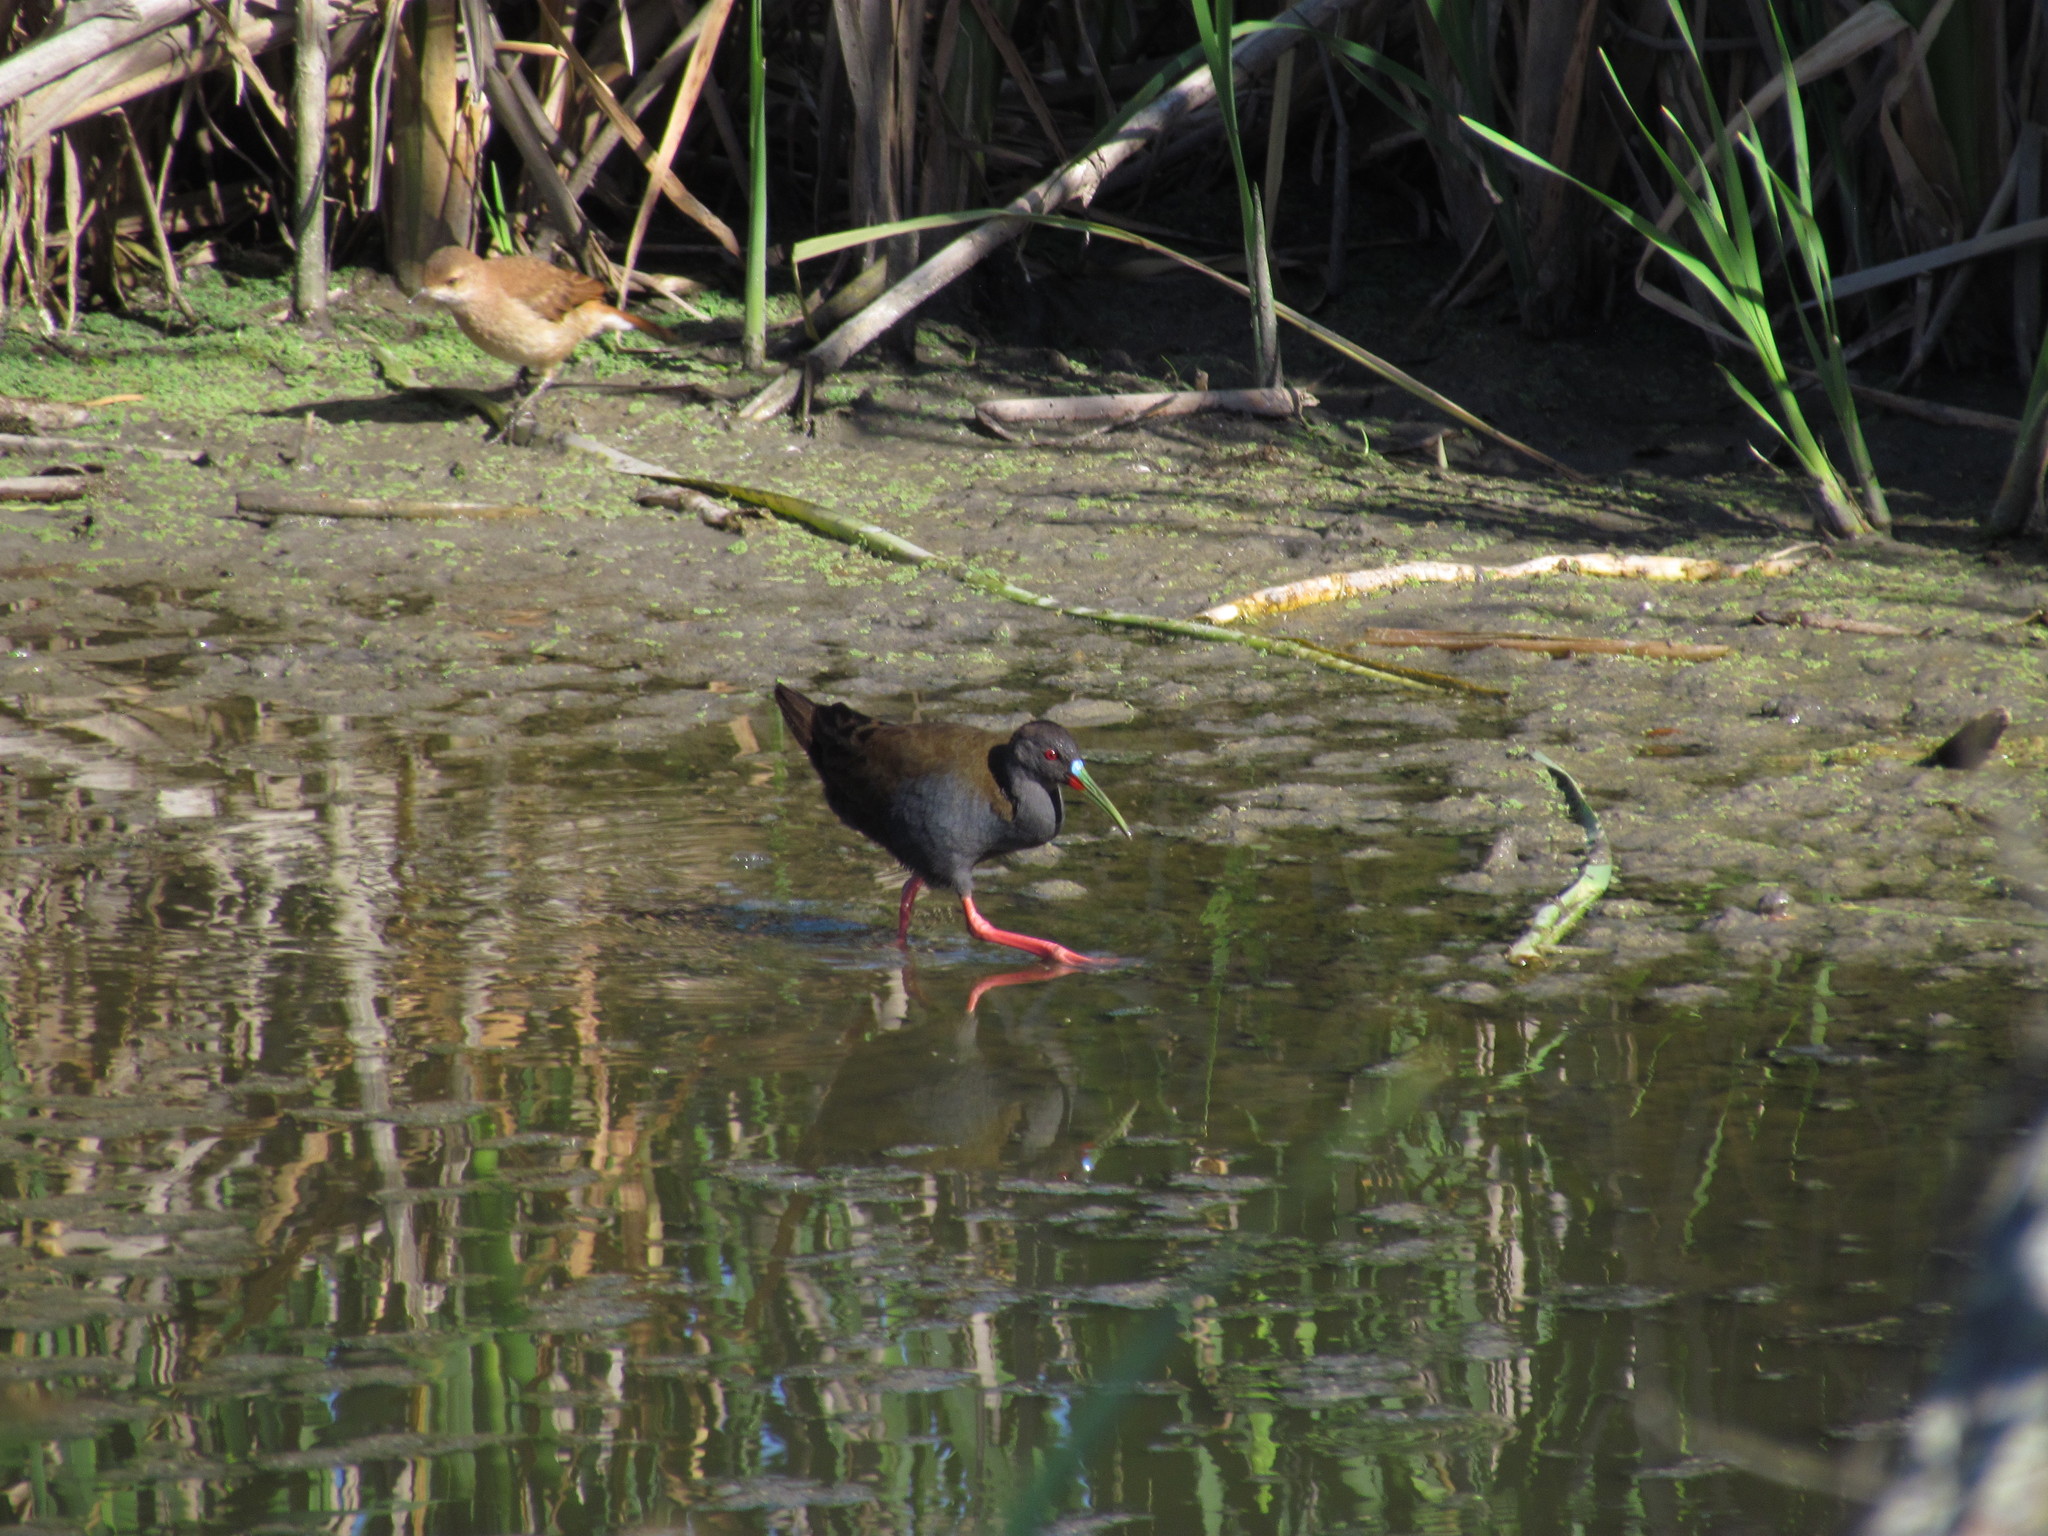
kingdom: Animalia
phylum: Chordata
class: Aves
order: Gruiformes
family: Rallidae
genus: Pardirallus
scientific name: Pardirallus sanguinolentus
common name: Plumbeous rail
